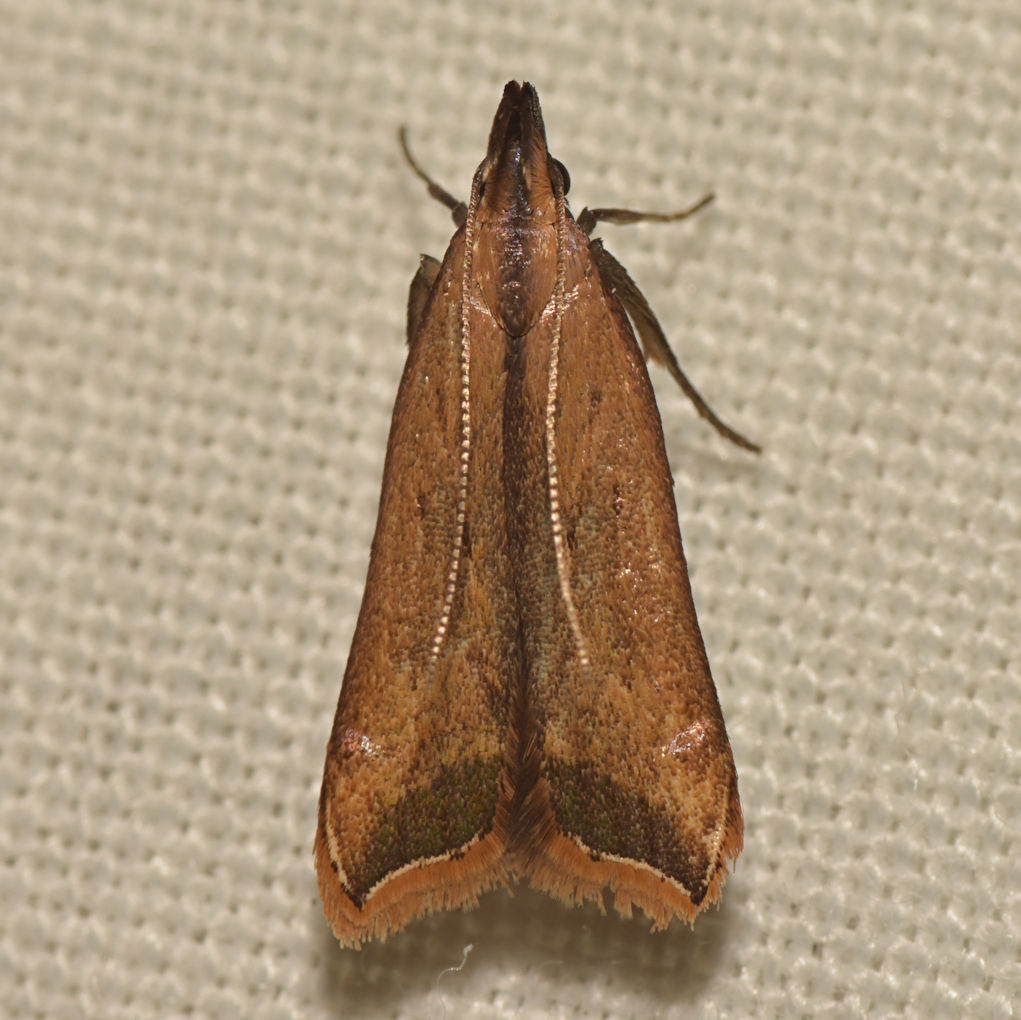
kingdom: Animalia
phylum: Arthropoda
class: Insecta
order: Lepidoptera
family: Gelechiidae
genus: Dichomeris
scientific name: Dichomeris heriguronis
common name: Black-edged dichomeris moth
